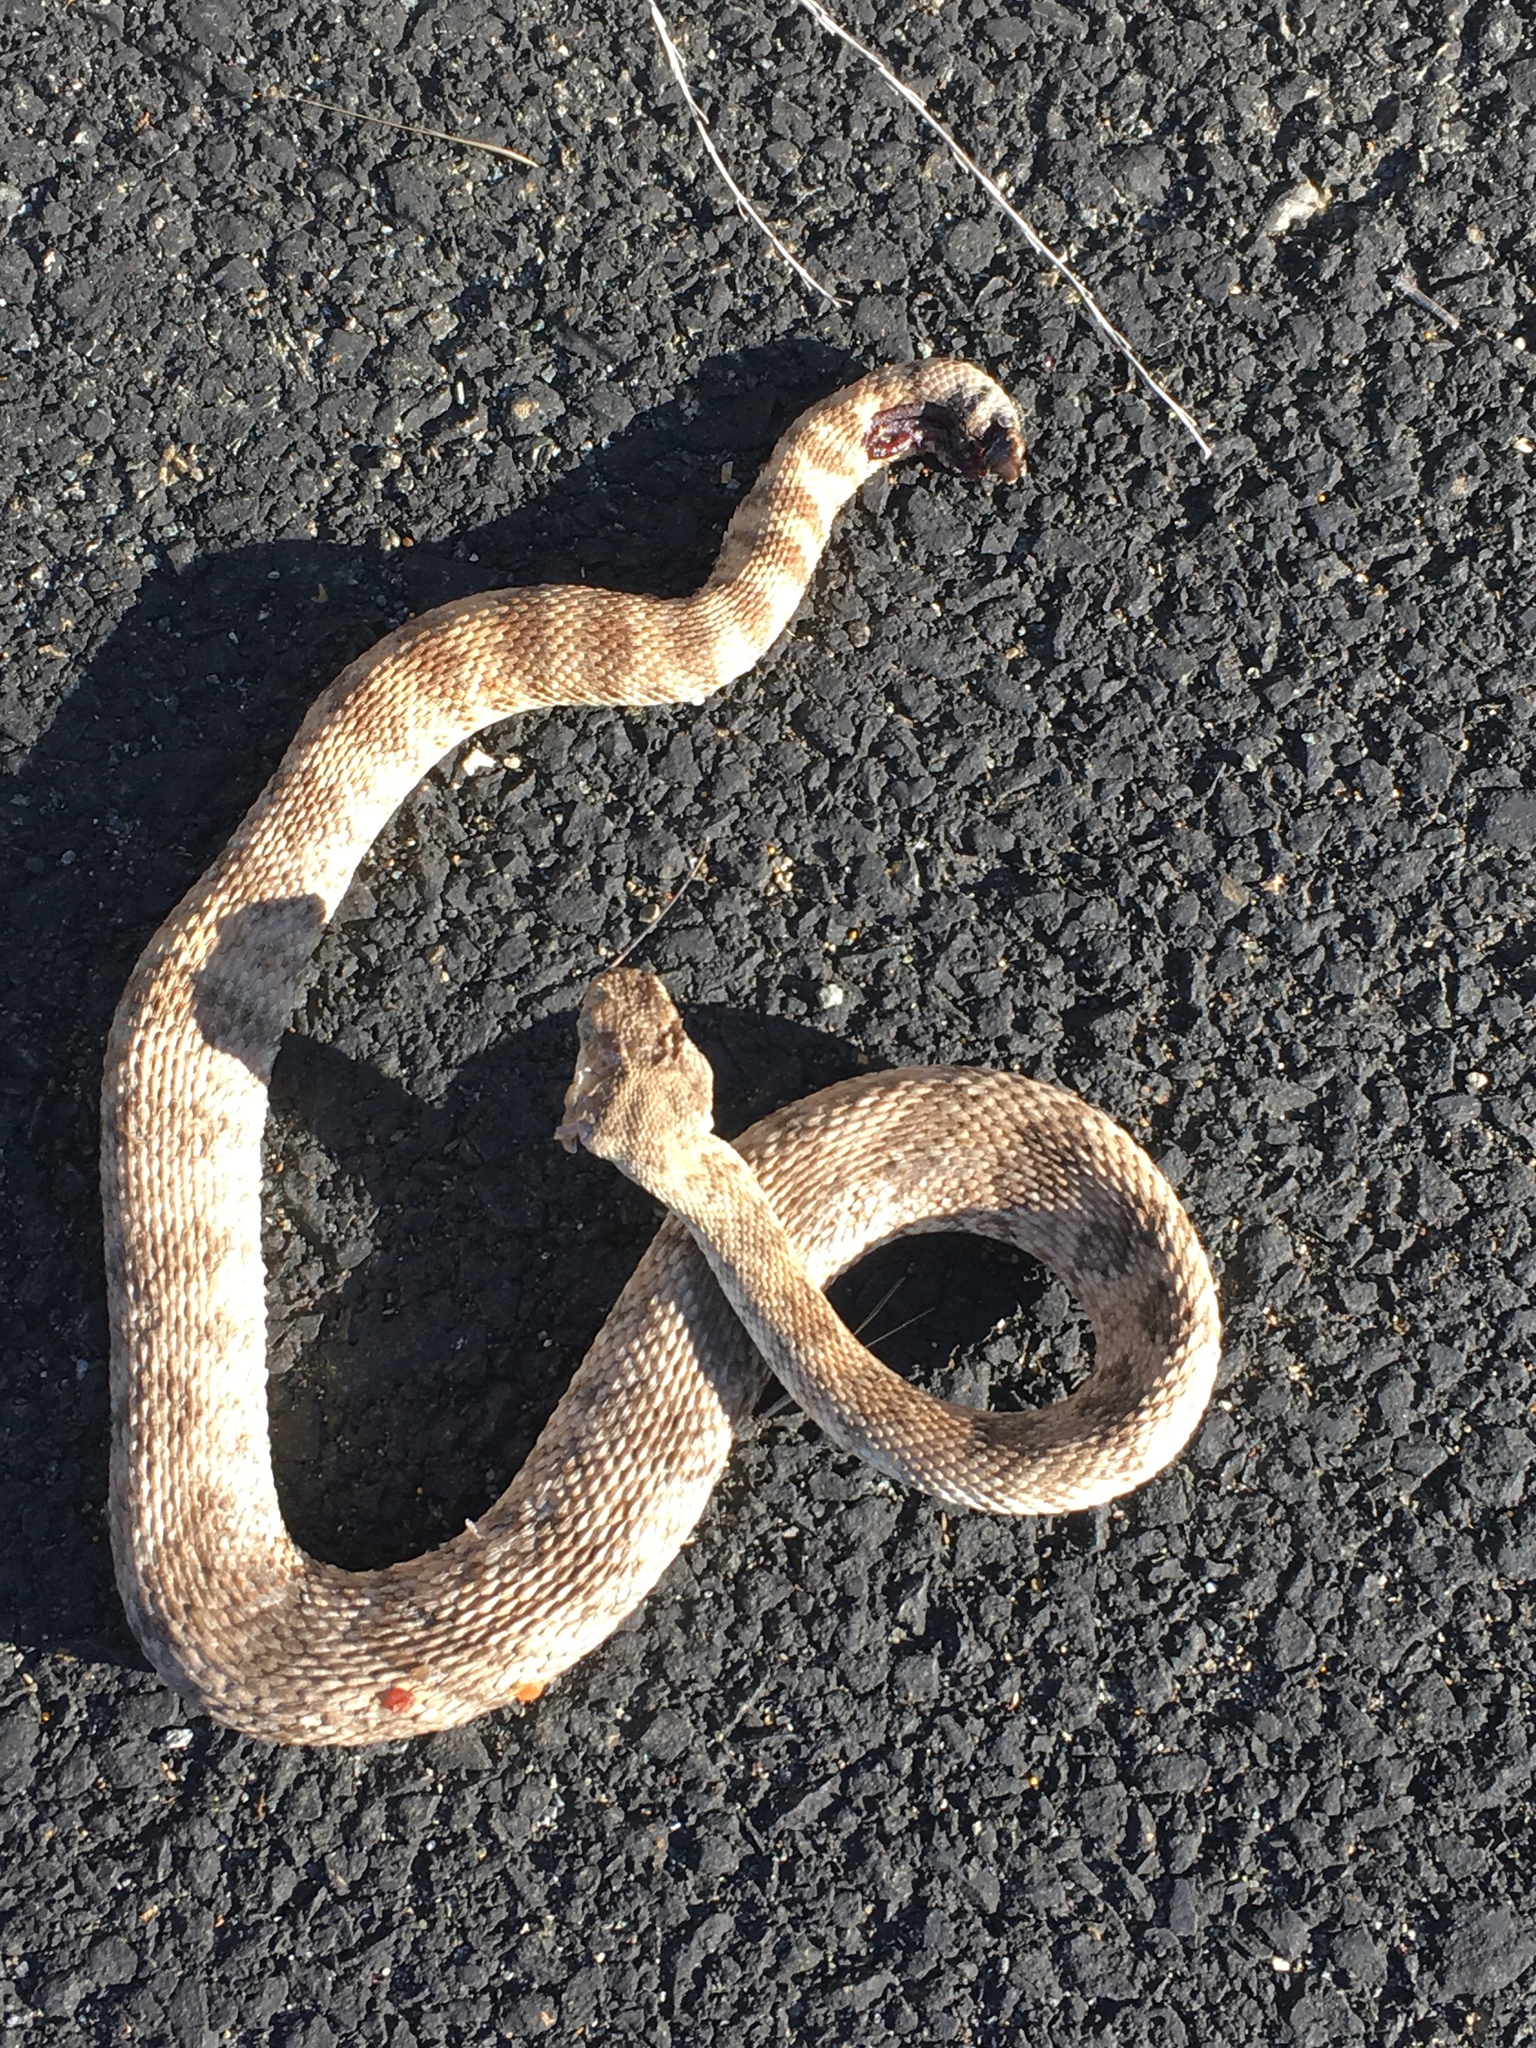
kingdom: Animalia
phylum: Chordata
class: Squamata
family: Viperidae
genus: Crotalus
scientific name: Crotalus pyrrhus
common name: Southwestern speckled rattlesnake
